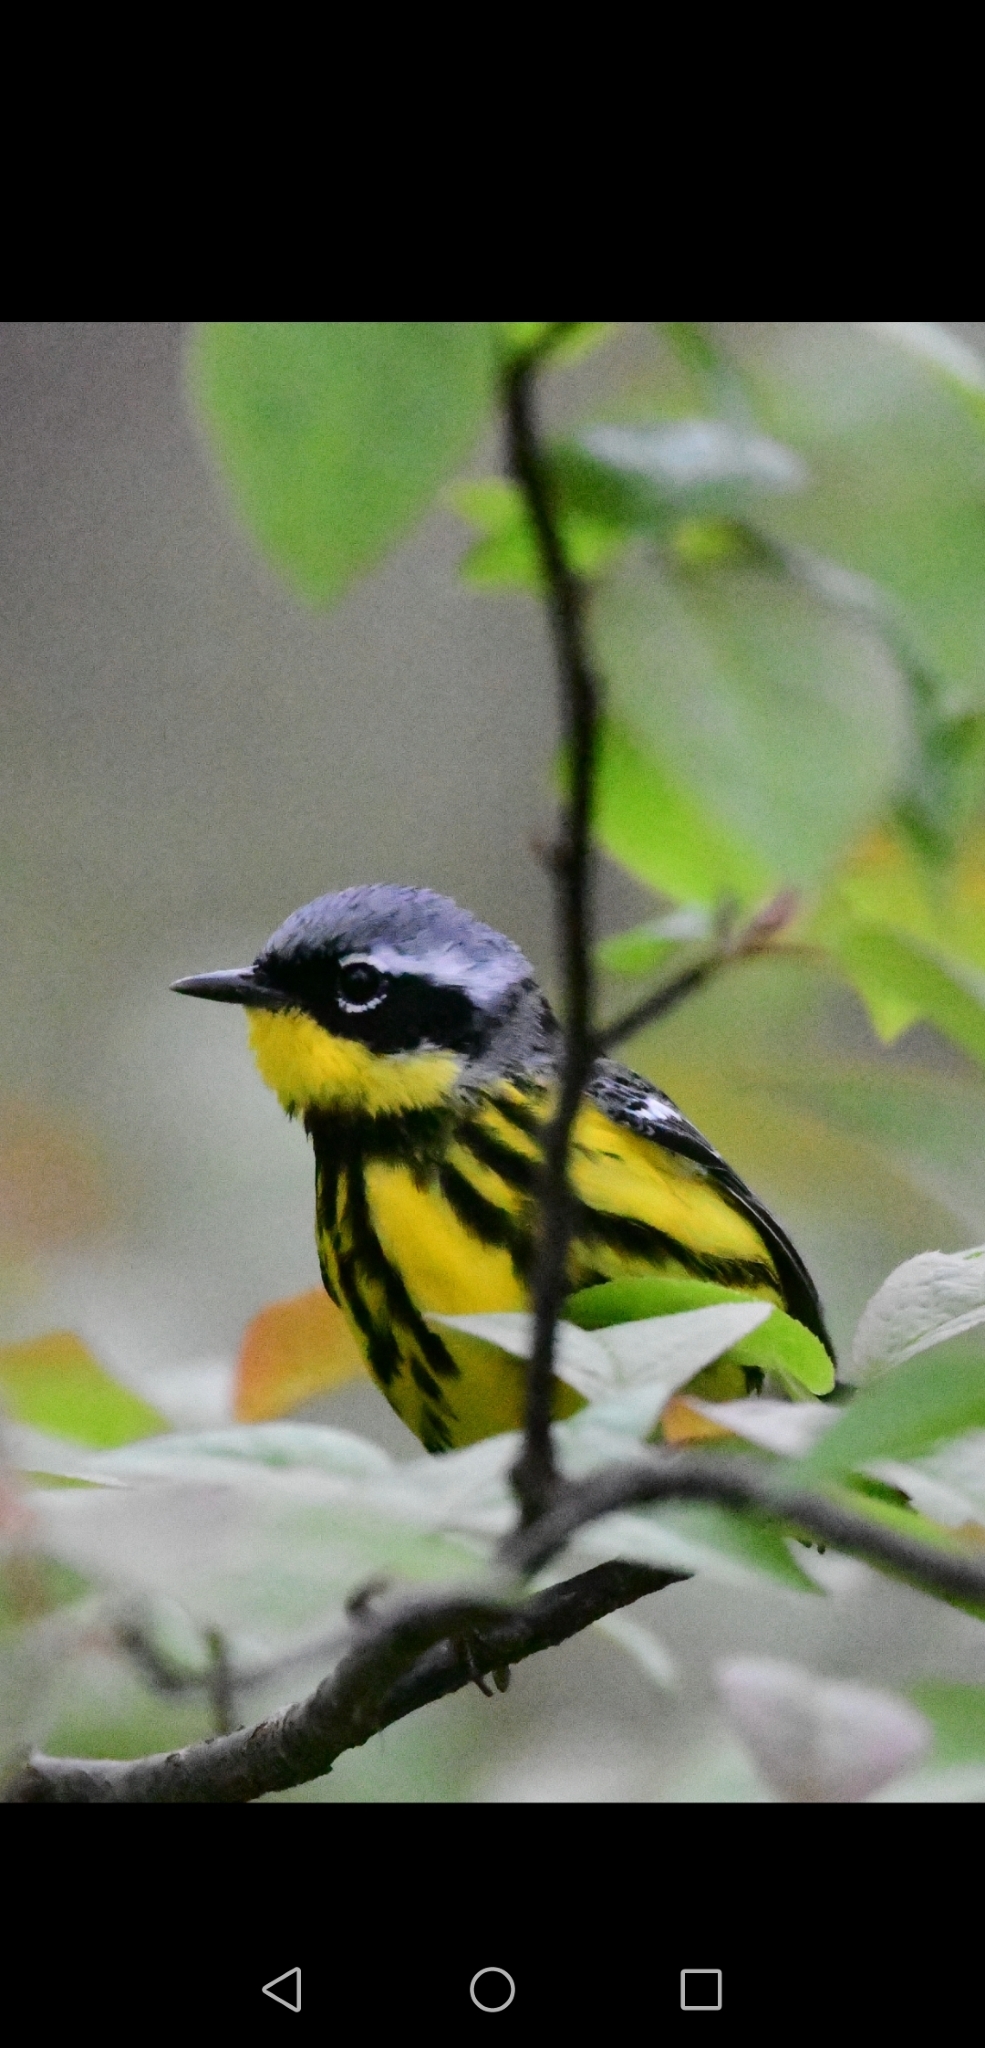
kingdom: Animalia
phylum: Chordata
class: Aves
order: Passeriformes
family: Parulidae
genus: Setophaga
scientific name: Setophaga magnolia
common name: Magnolia warbler
